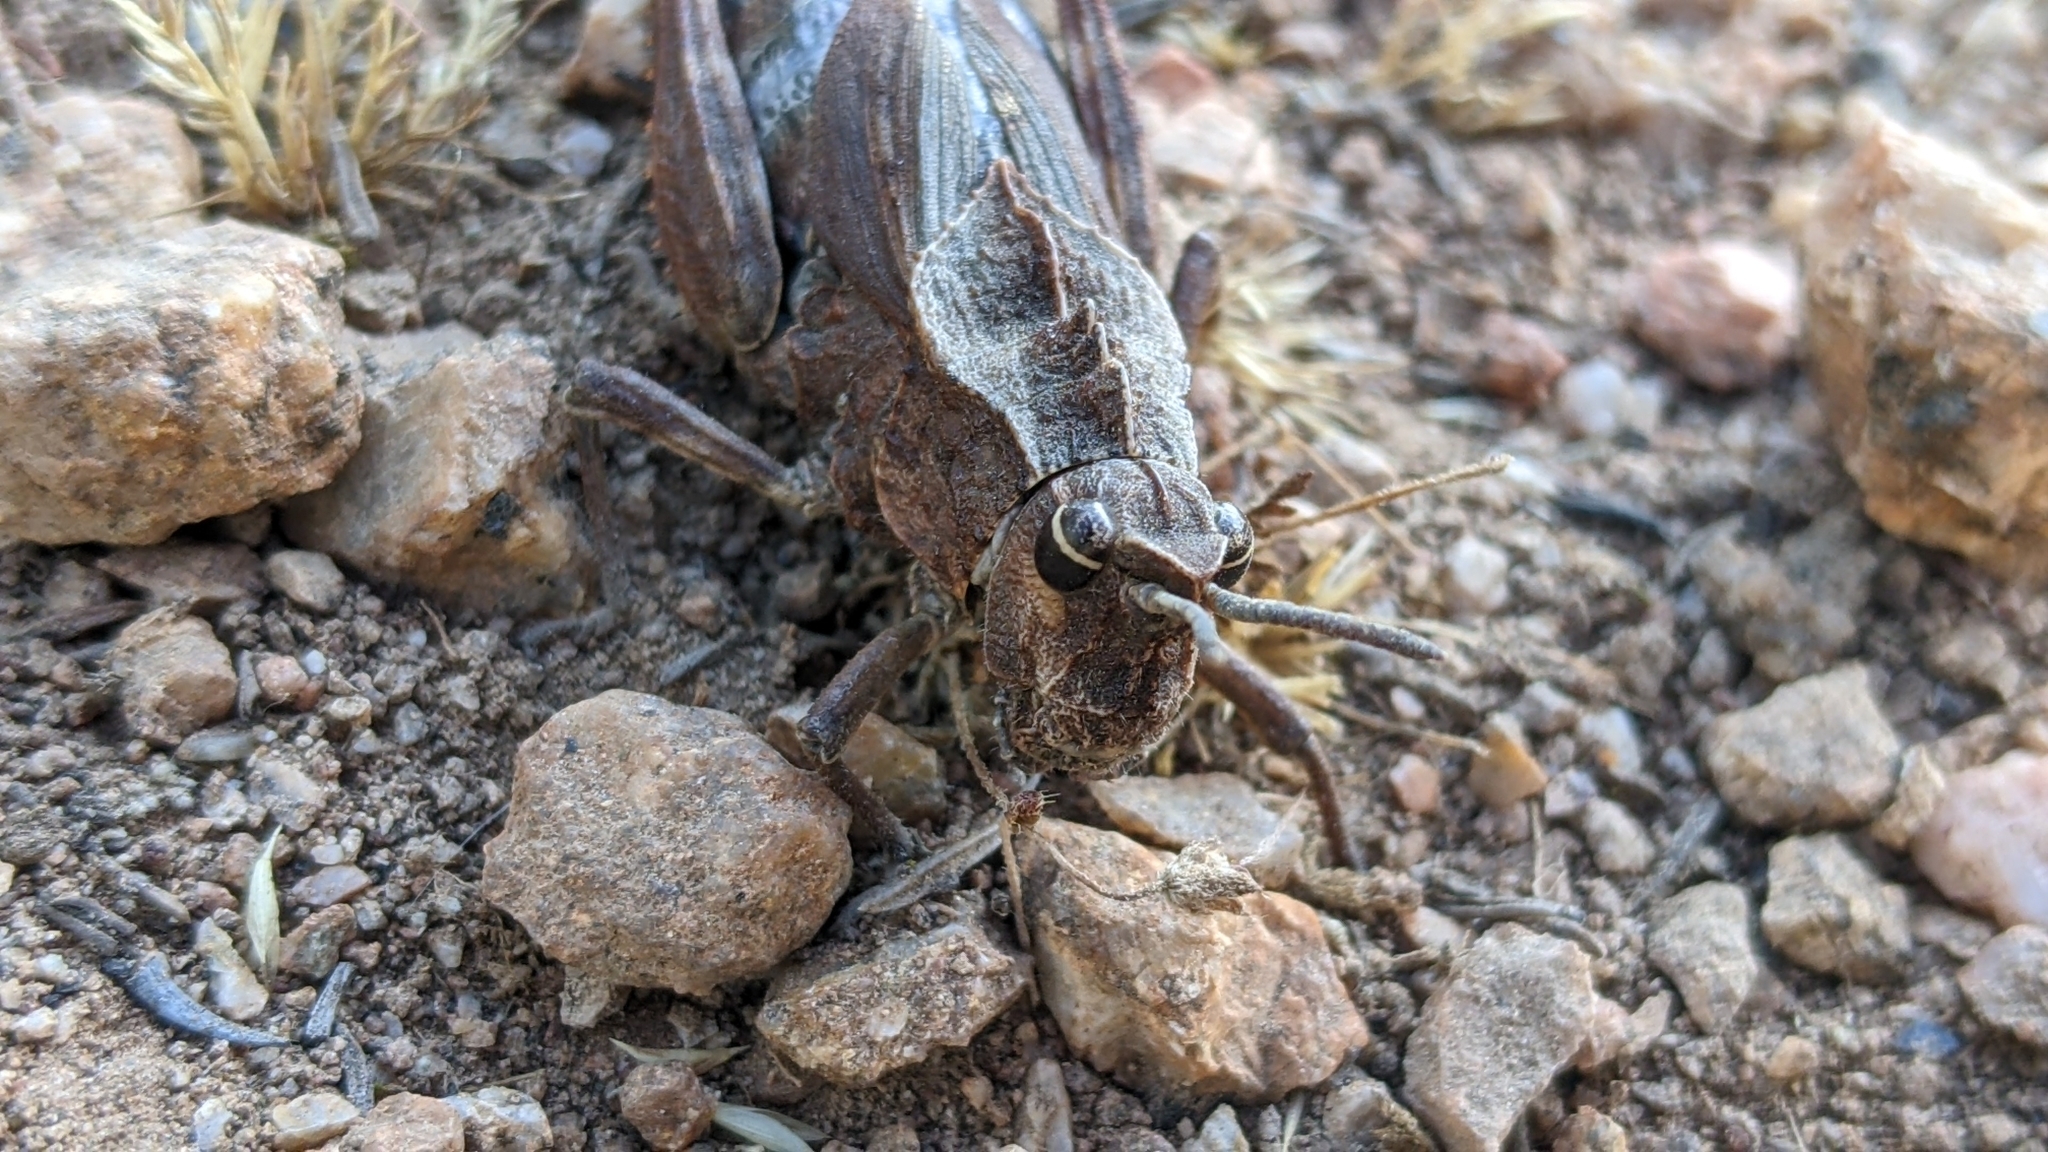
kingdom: Animalia
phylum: Arthropoda
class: Insecta
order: Orthoptera
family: Romaleidae
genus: Dracotettix
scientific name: Dracotettix monstrosus
